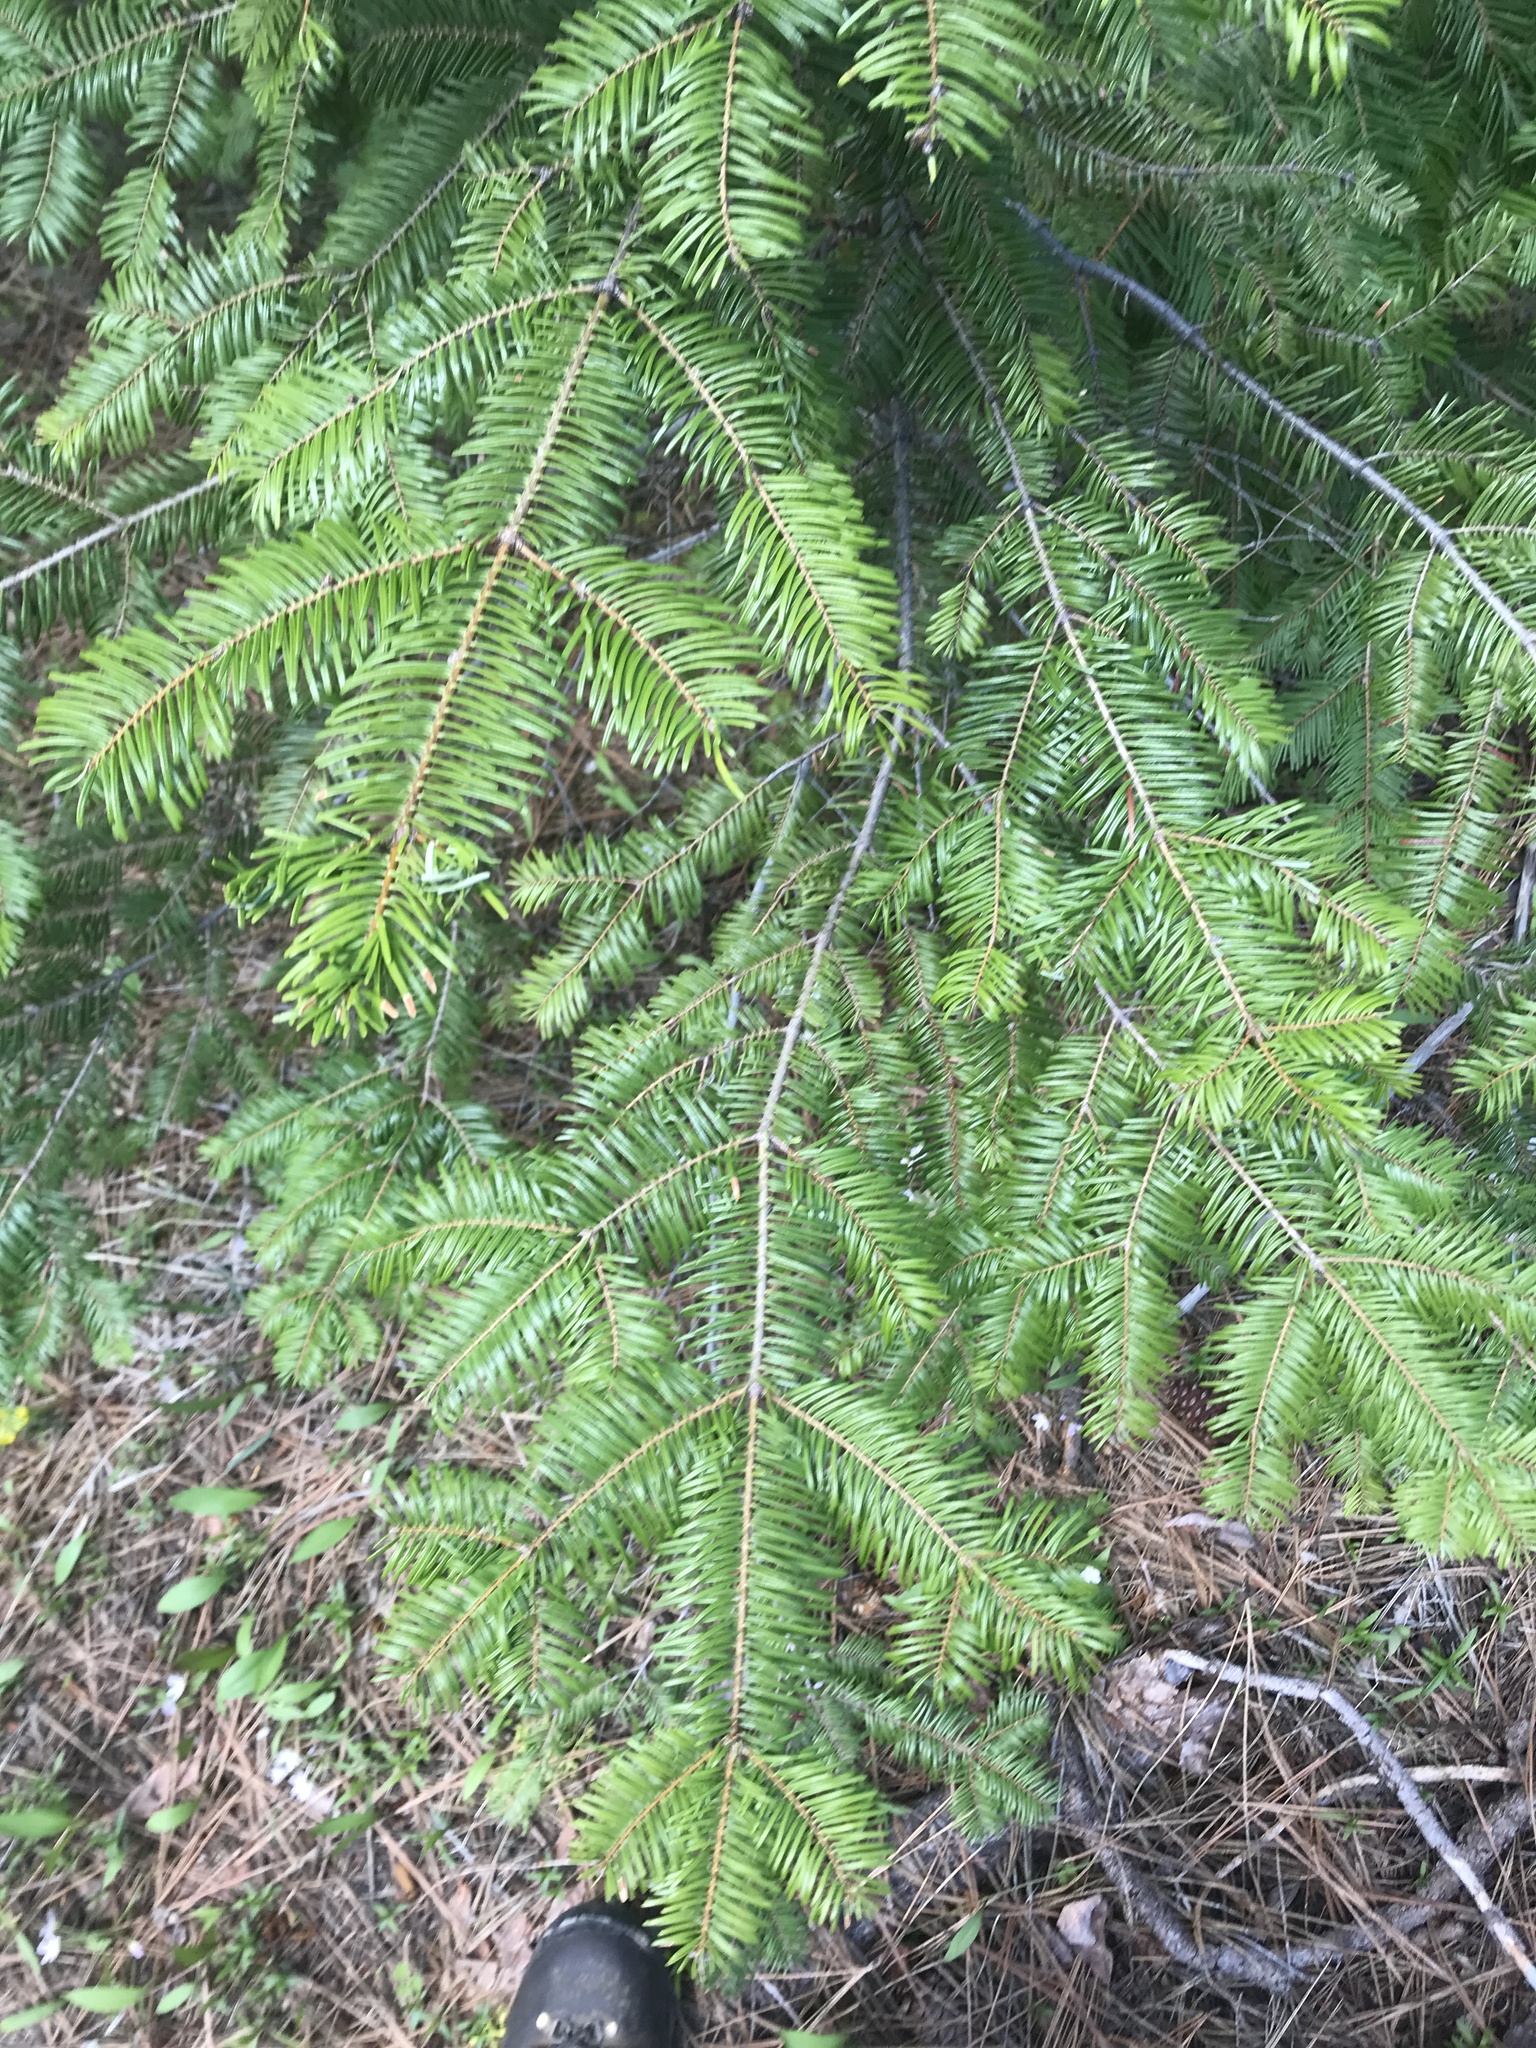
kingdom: Plantae
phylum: Tracheophyta
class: Pinopsida
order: Pinales
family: Pinaceae
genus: Abies
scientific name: Abies grandis
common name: Giant fir
